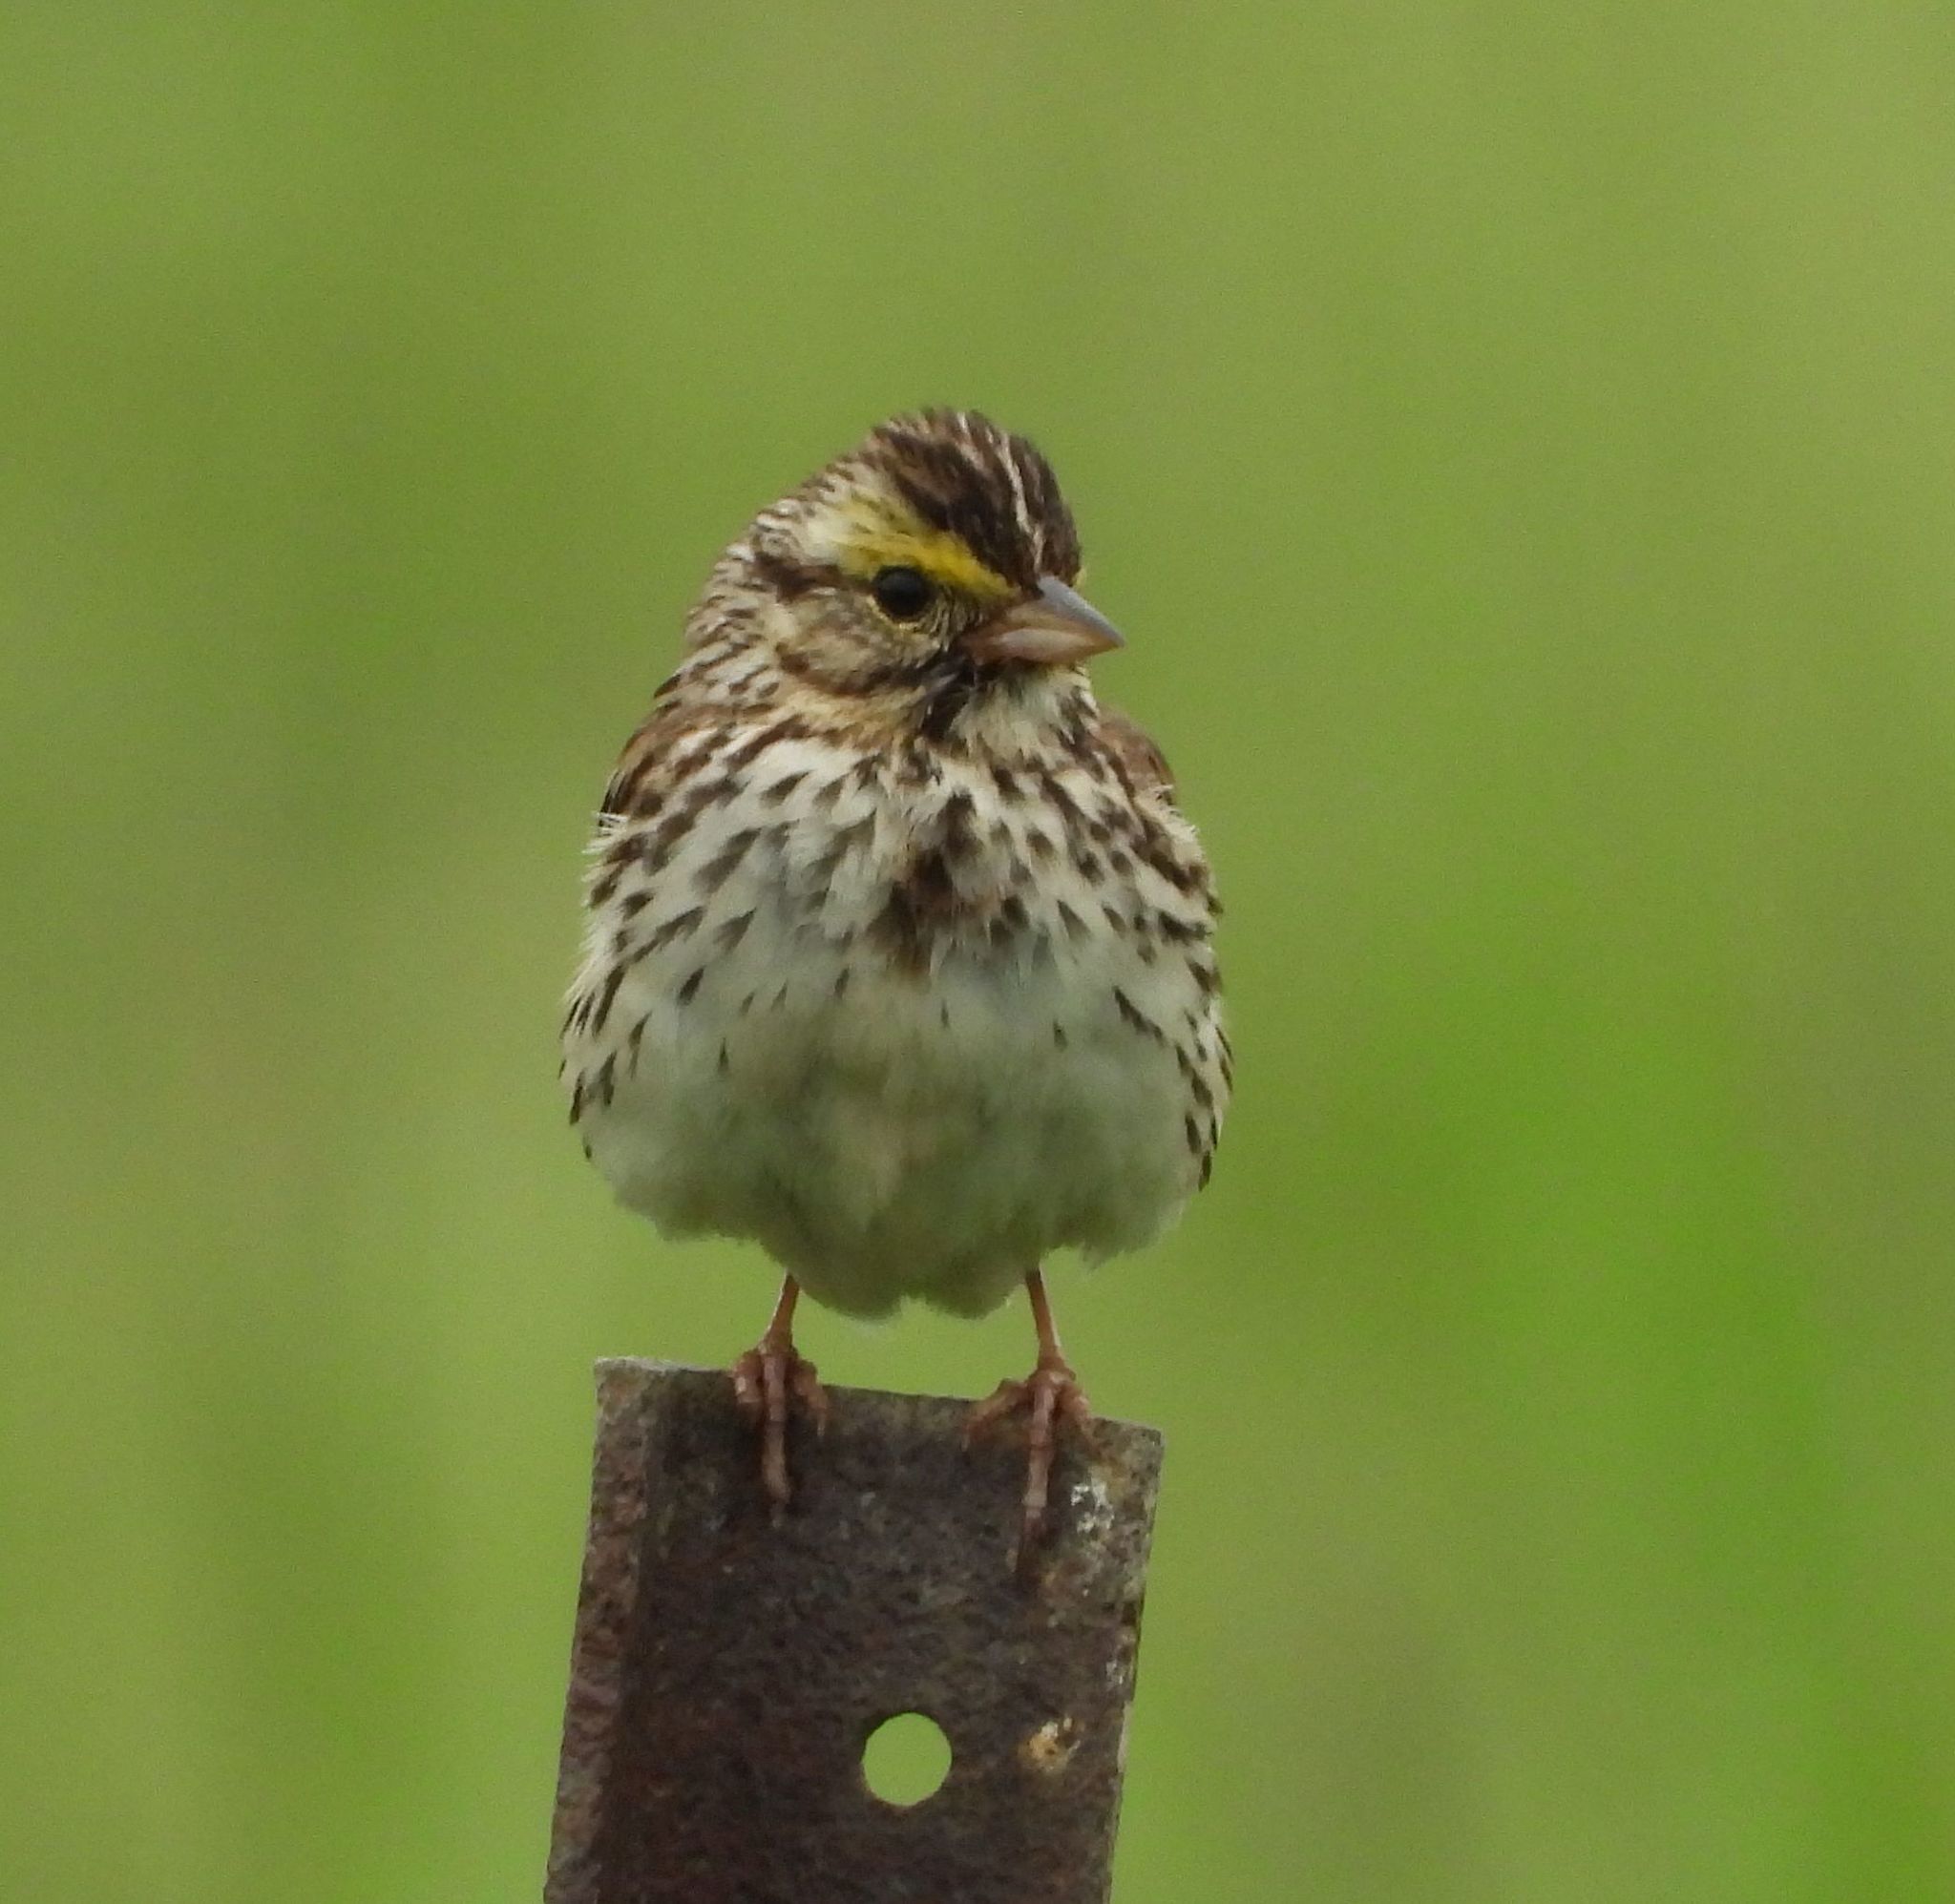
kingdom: Animalia
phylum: Chordata
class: Aves
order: Passeriformes
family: Passerellidae
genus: Passerculus
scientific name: Passerculus sandwichensis
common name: Savannah sparrow
